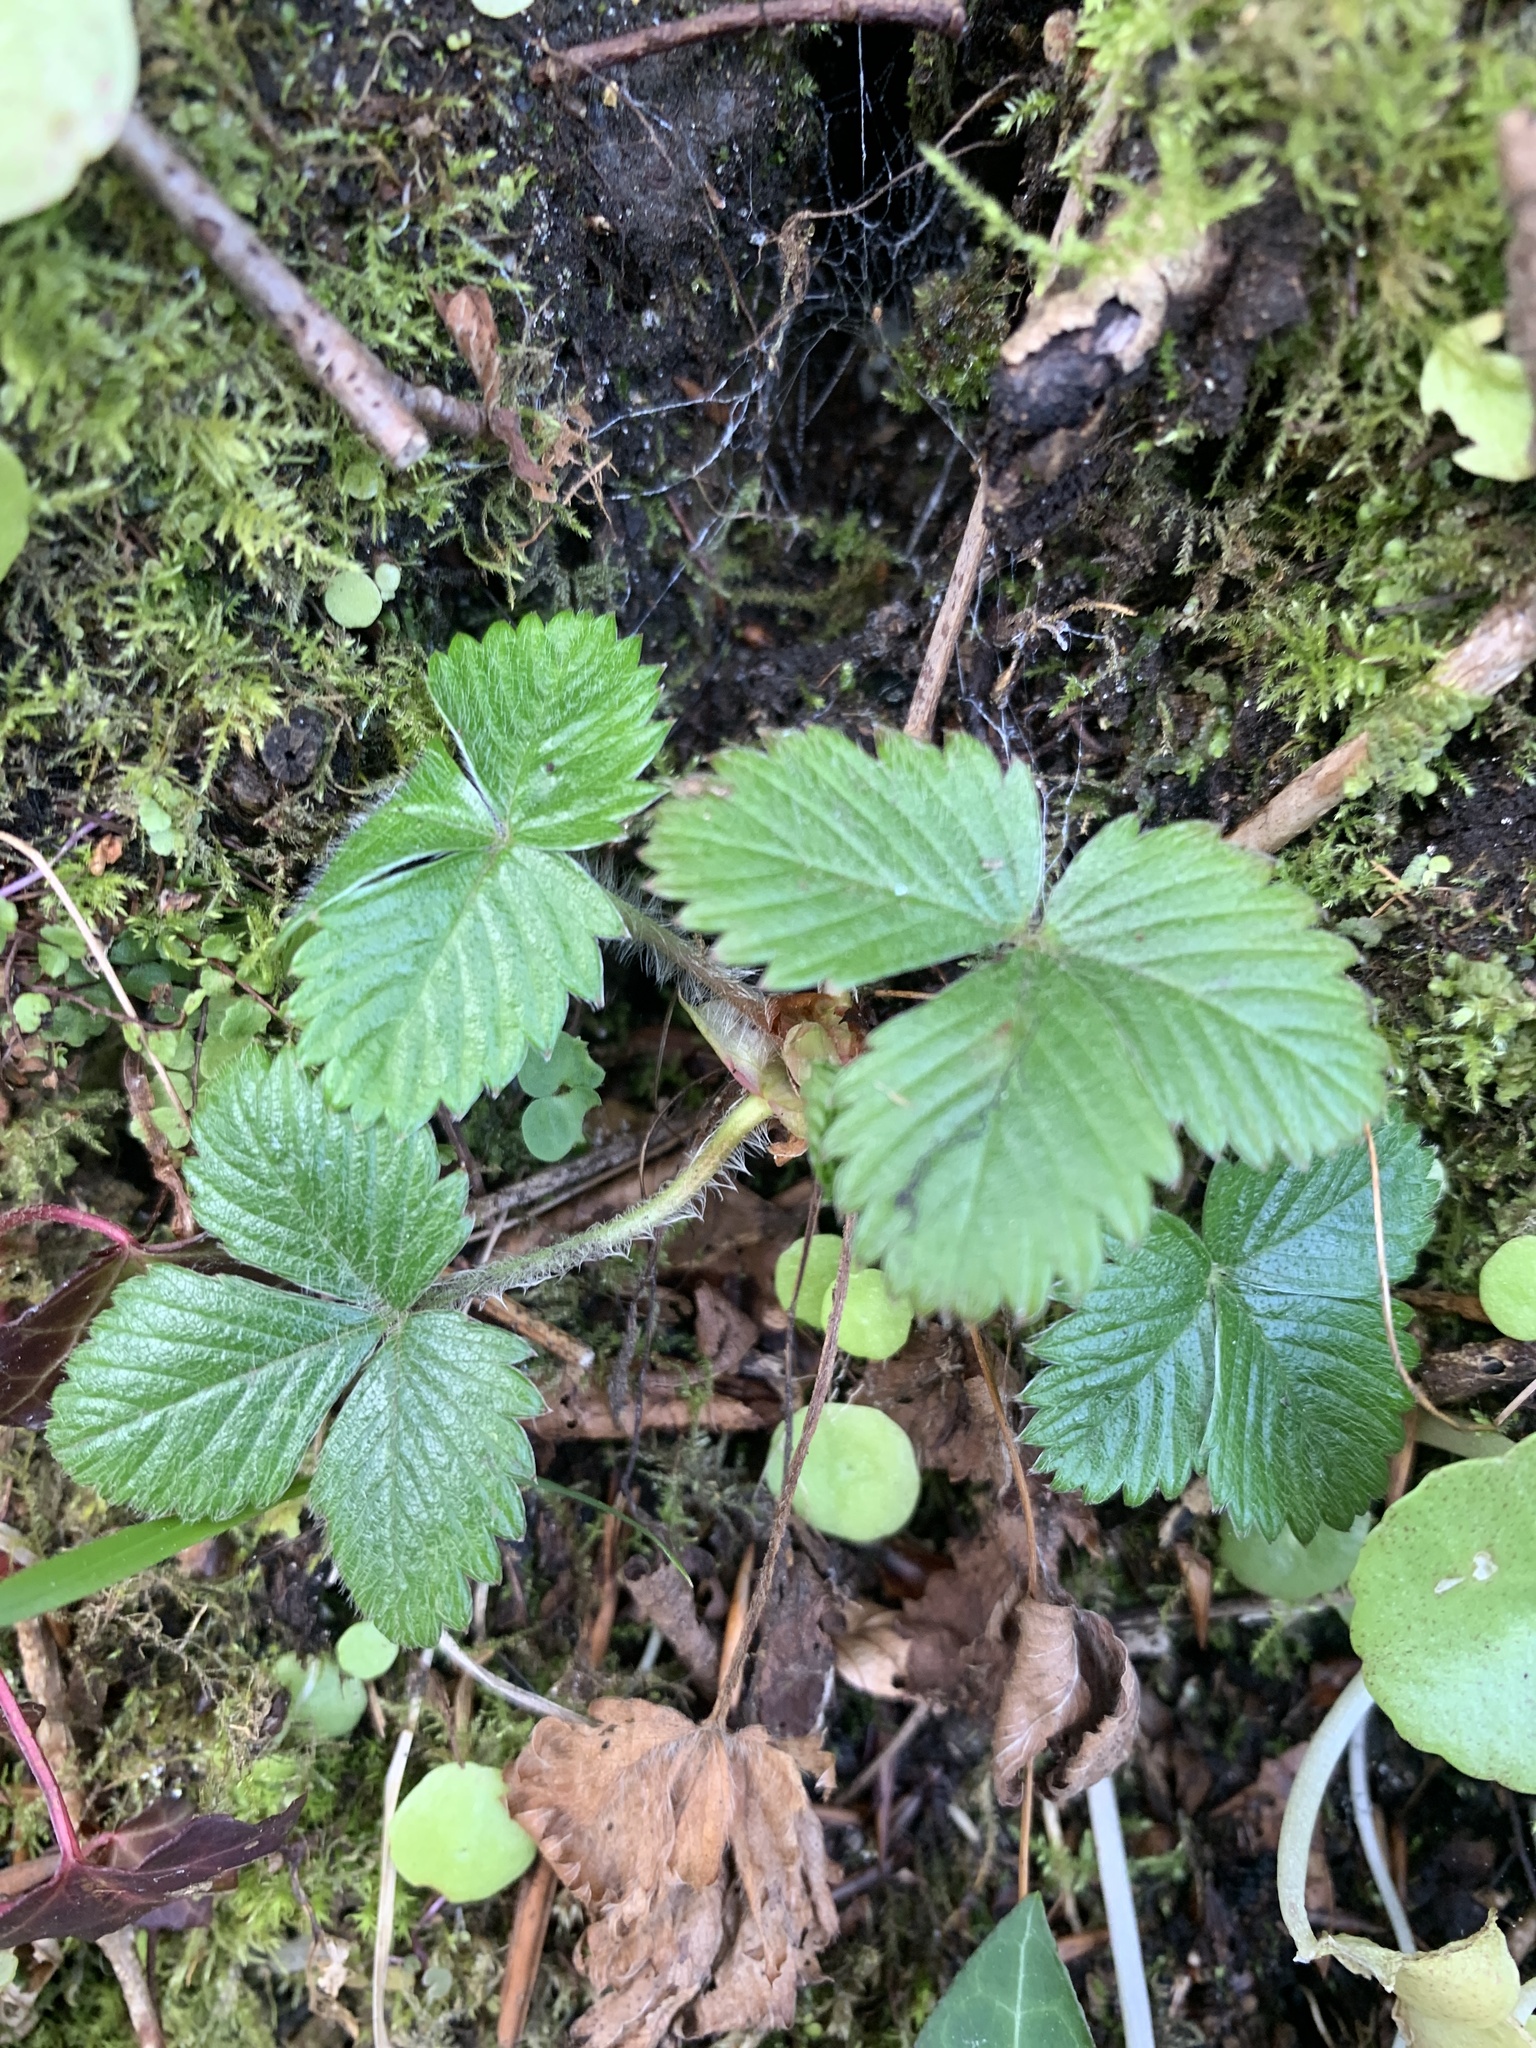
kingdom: Plantae
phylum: Tracheophyta
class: Magnoliopsida
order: Rosales
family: Rosaceae
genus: Fragaria
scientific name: Fragaria vesca
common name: Wild strawberry
